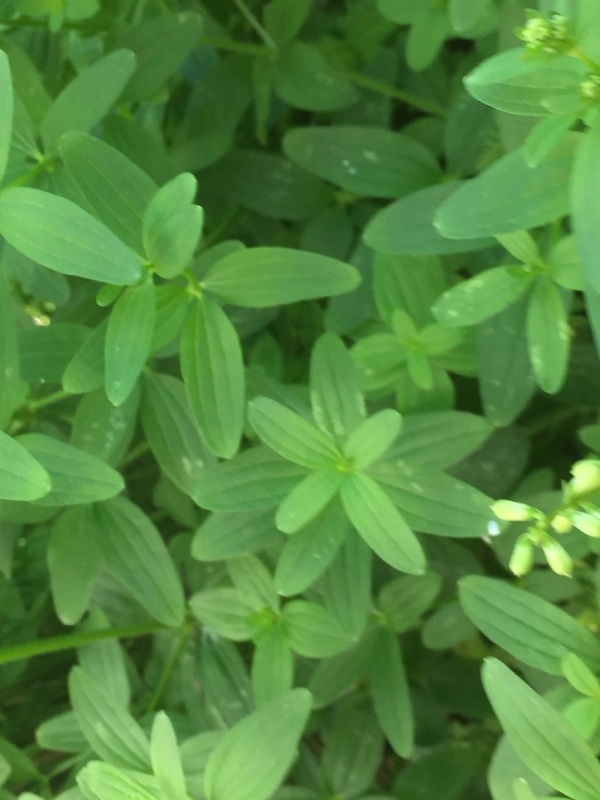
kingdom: Plantae
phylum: Tracheophyta
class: Magnoliopsida
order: Gentianales
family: Rubiaceae
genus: Galium
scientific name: Galium broterianum
